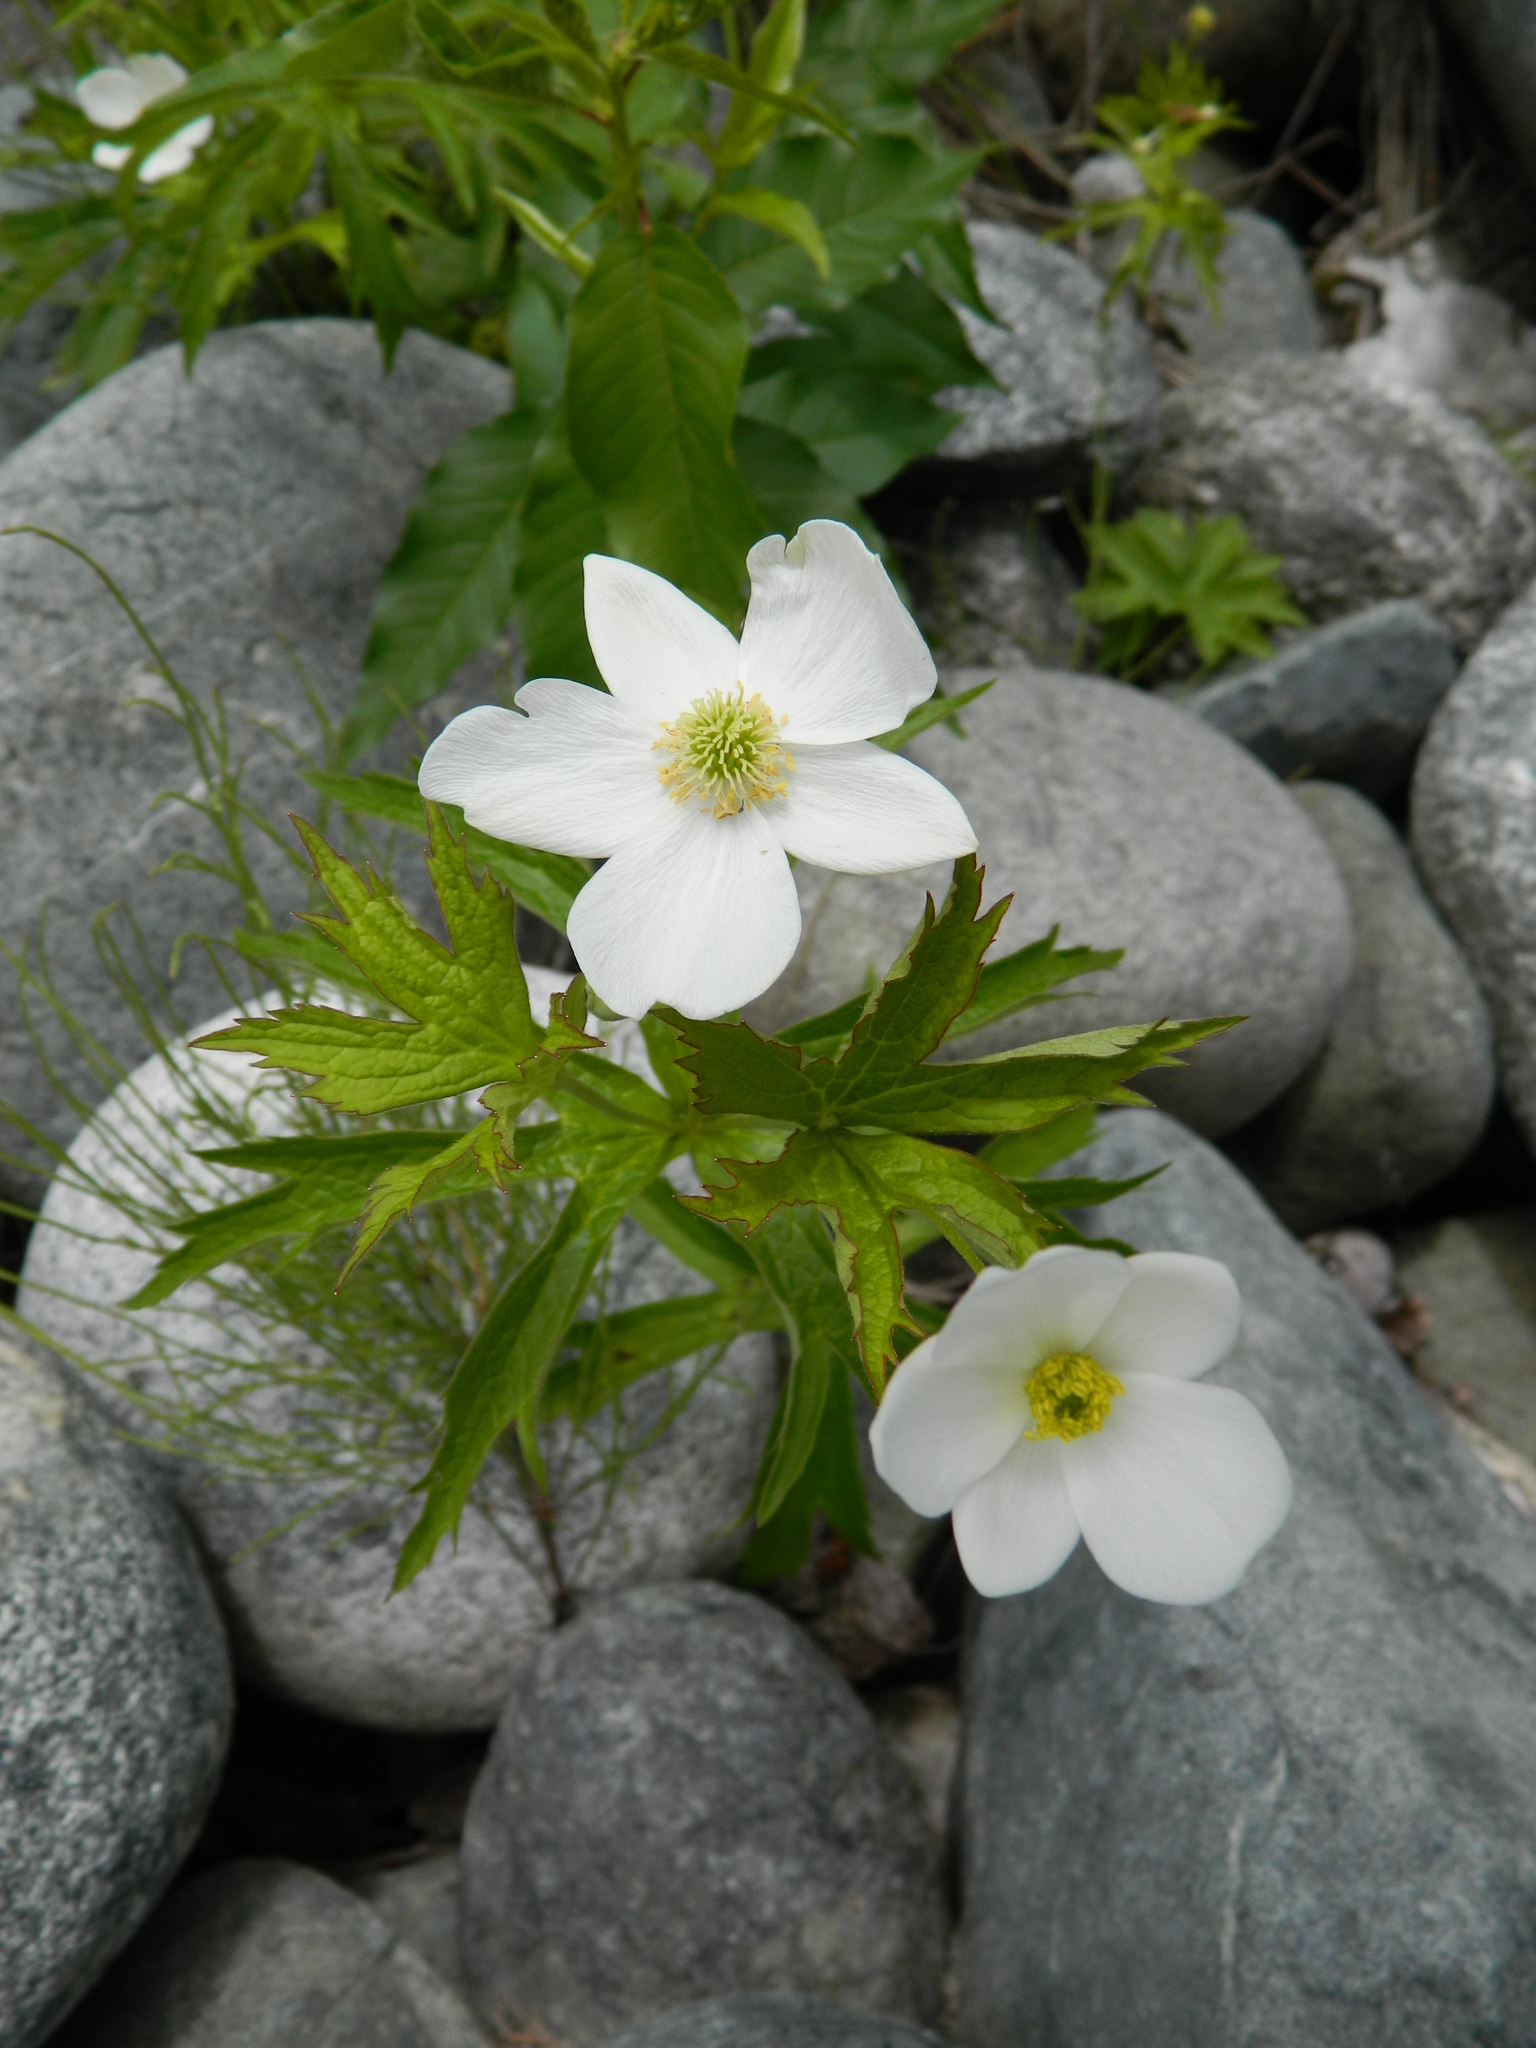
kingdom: Plantae
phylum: Tracheophyta
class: Magnoliopsida
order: Ranunculales
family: Ranunculaceae
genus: Anemonastrum
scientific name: Anemonastrum canadense
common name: Canada anemone
